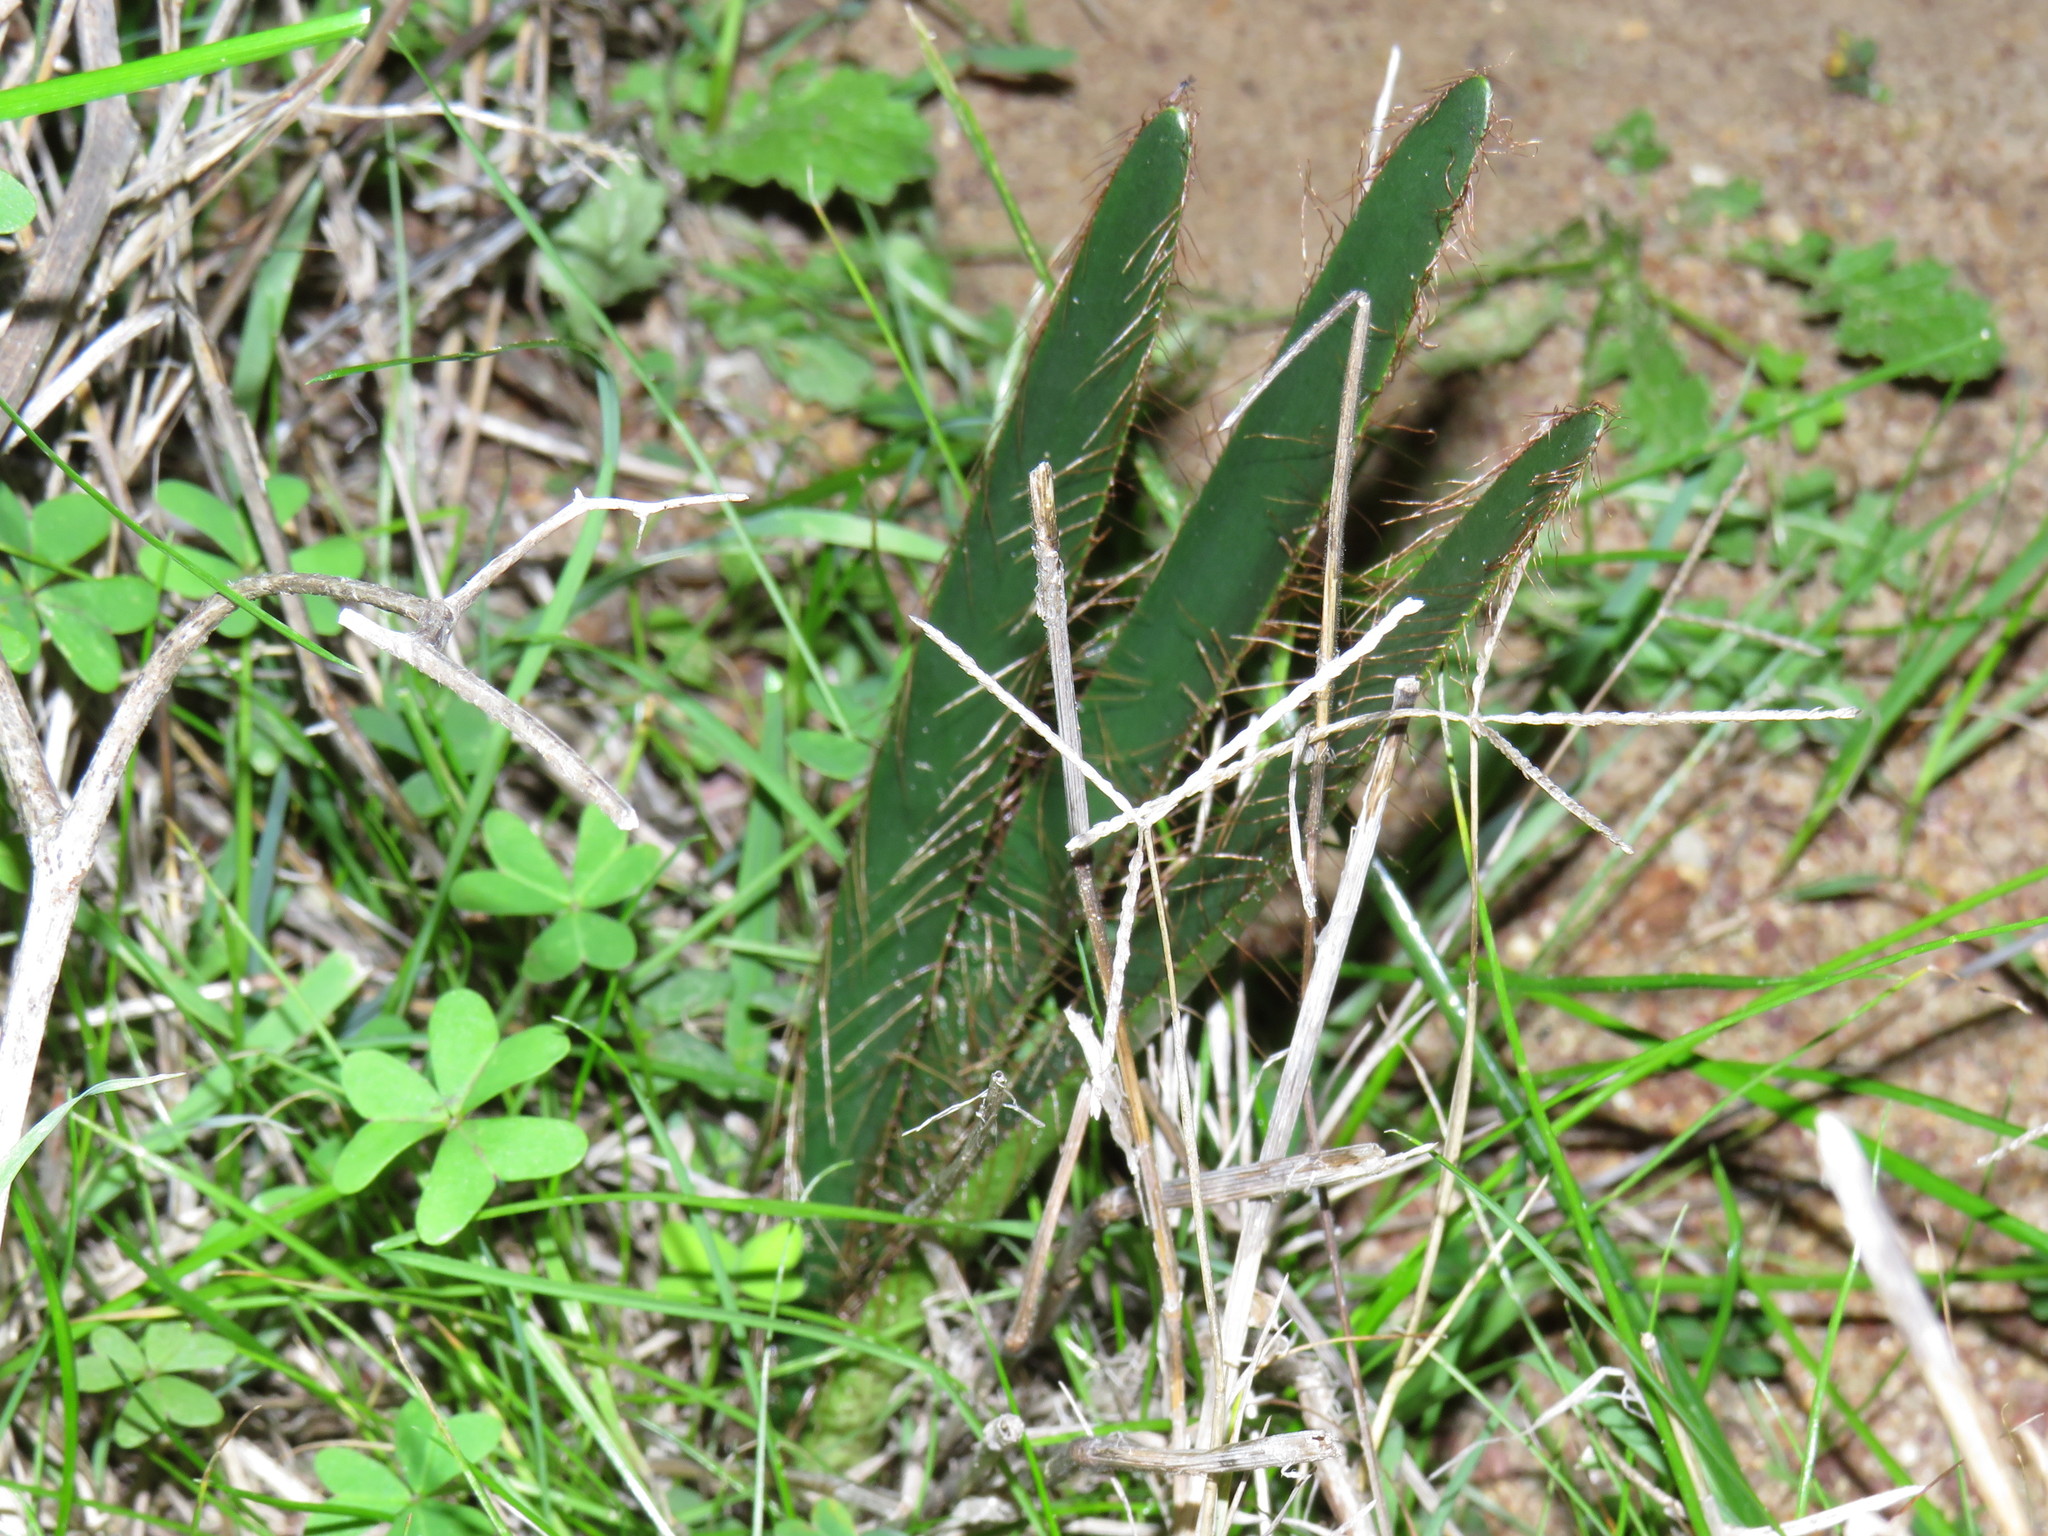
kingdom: Plantae
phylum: Tracheophyta
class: Liliopsida
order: Asparagales
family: Amaryllidaceae
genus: Crossyne
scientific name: Crossyne guttata
